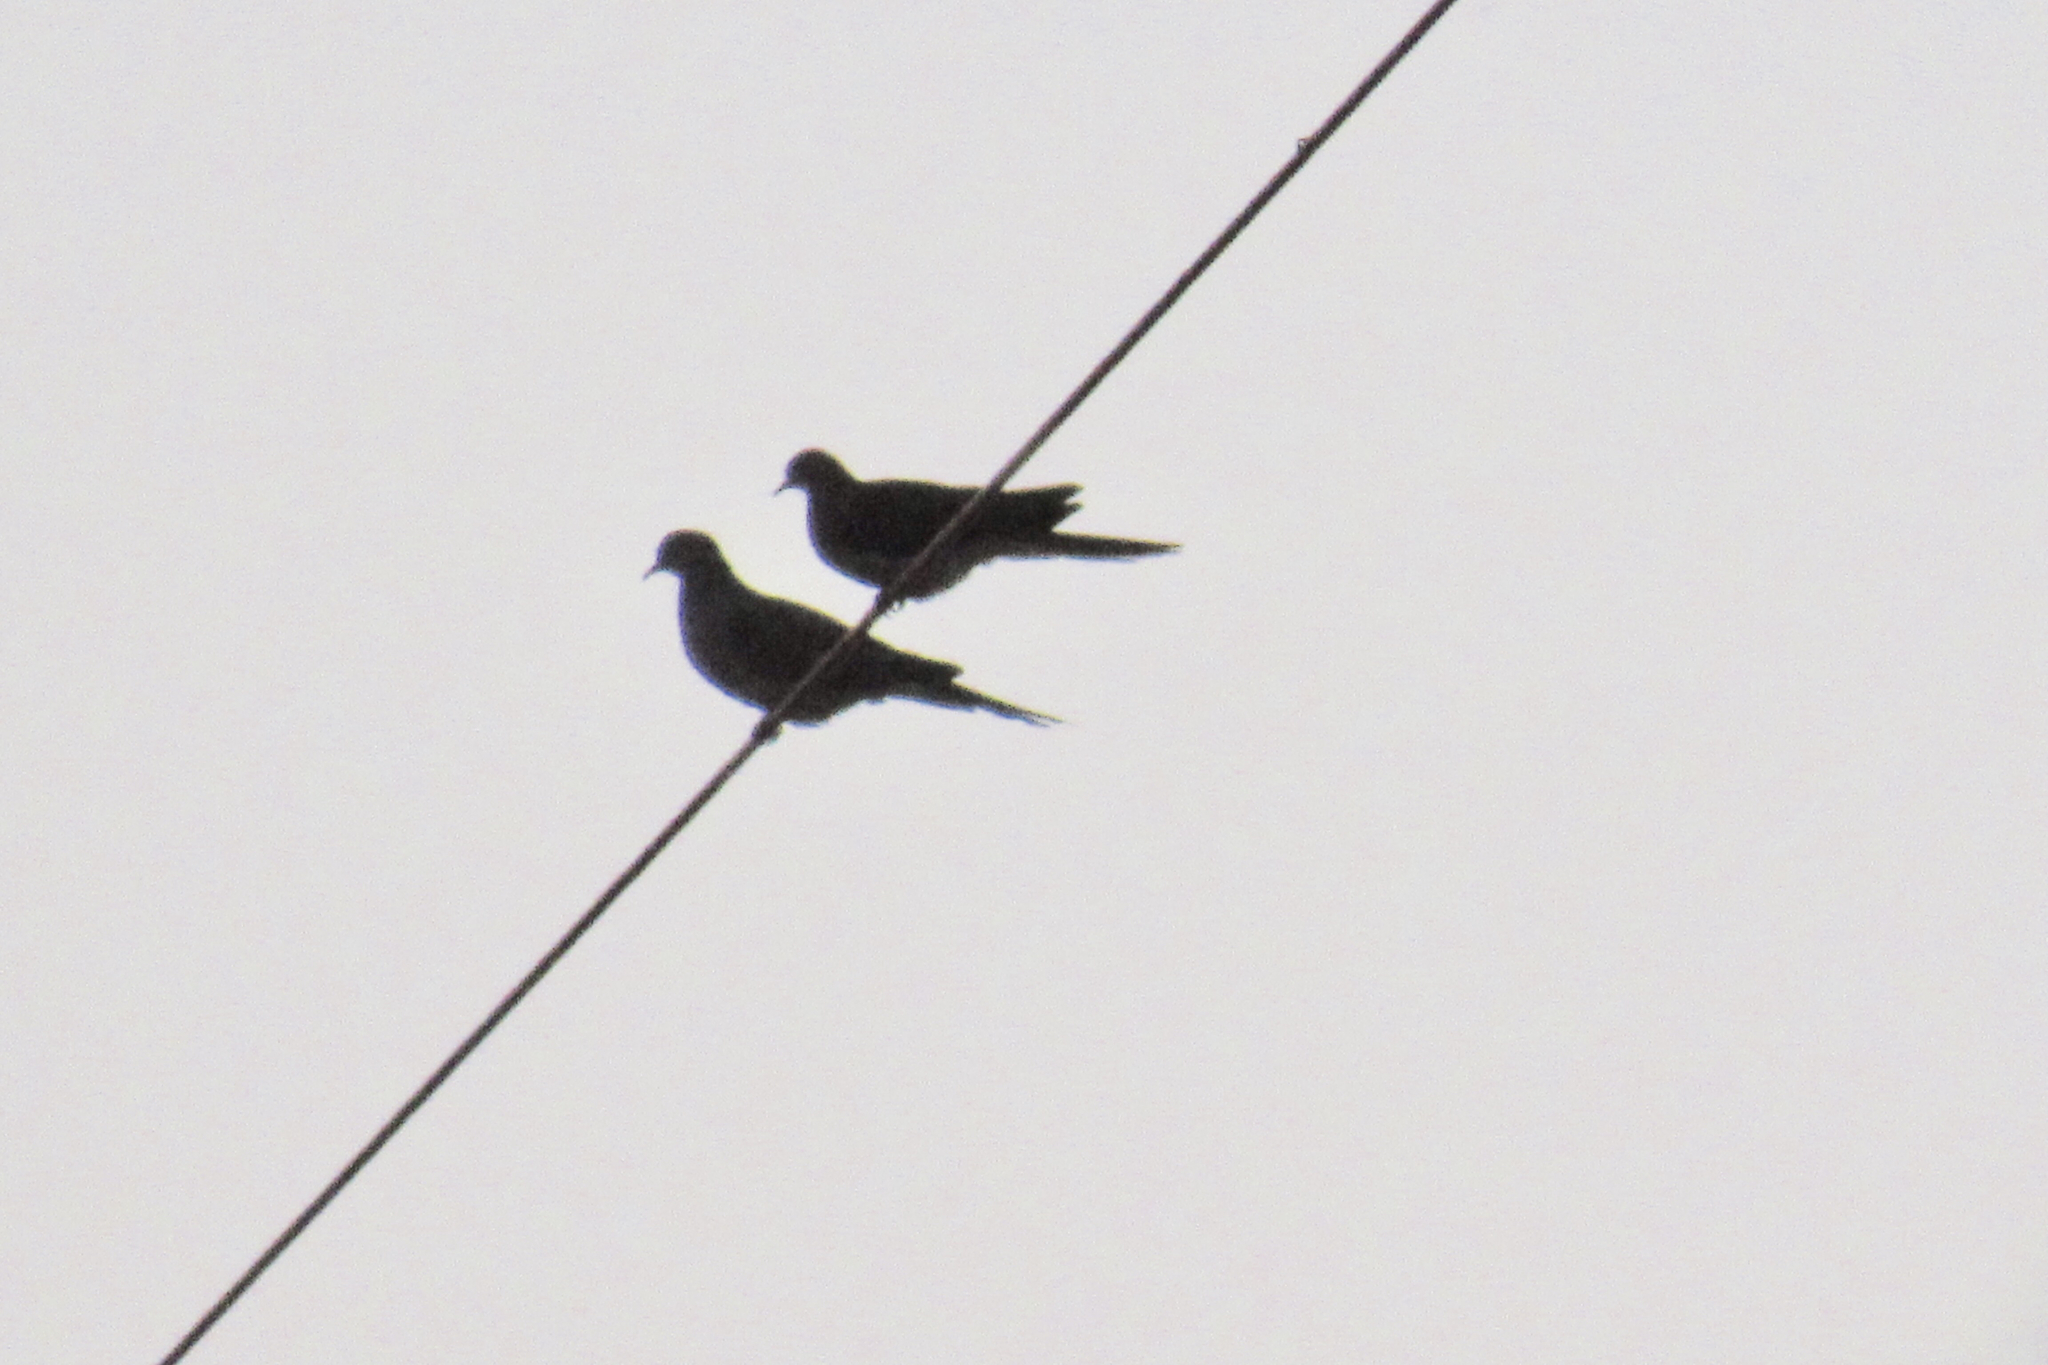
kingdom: Animalia
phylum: Chordata
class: Aves
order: Columbiformes
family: Columbidae
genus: Zenaida
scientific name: Zenaida macroura
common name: Mourning dove
